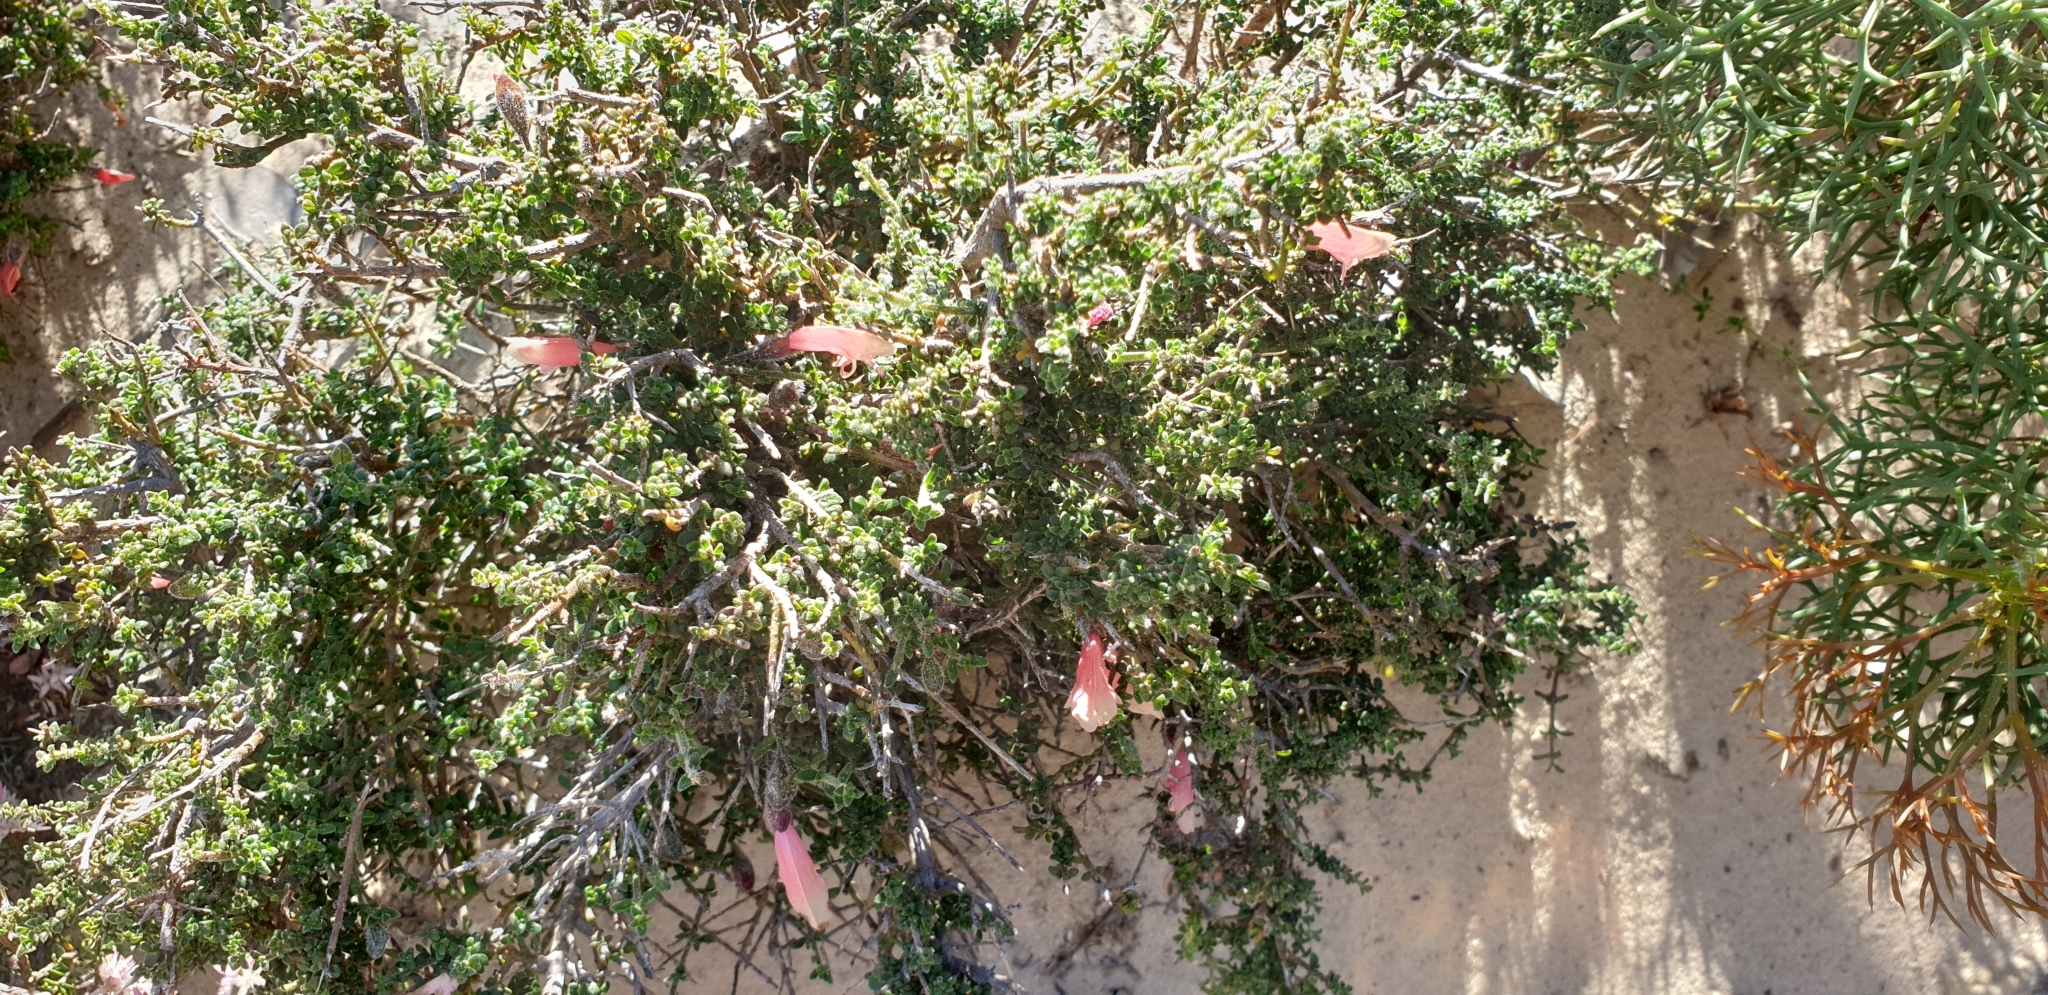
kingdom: Plantae
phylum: Tracheophyta
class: Magnoliopsida
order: Lamiales
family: Lamiaceae
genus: Prostanthera
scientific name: Prostanthera microphylla
